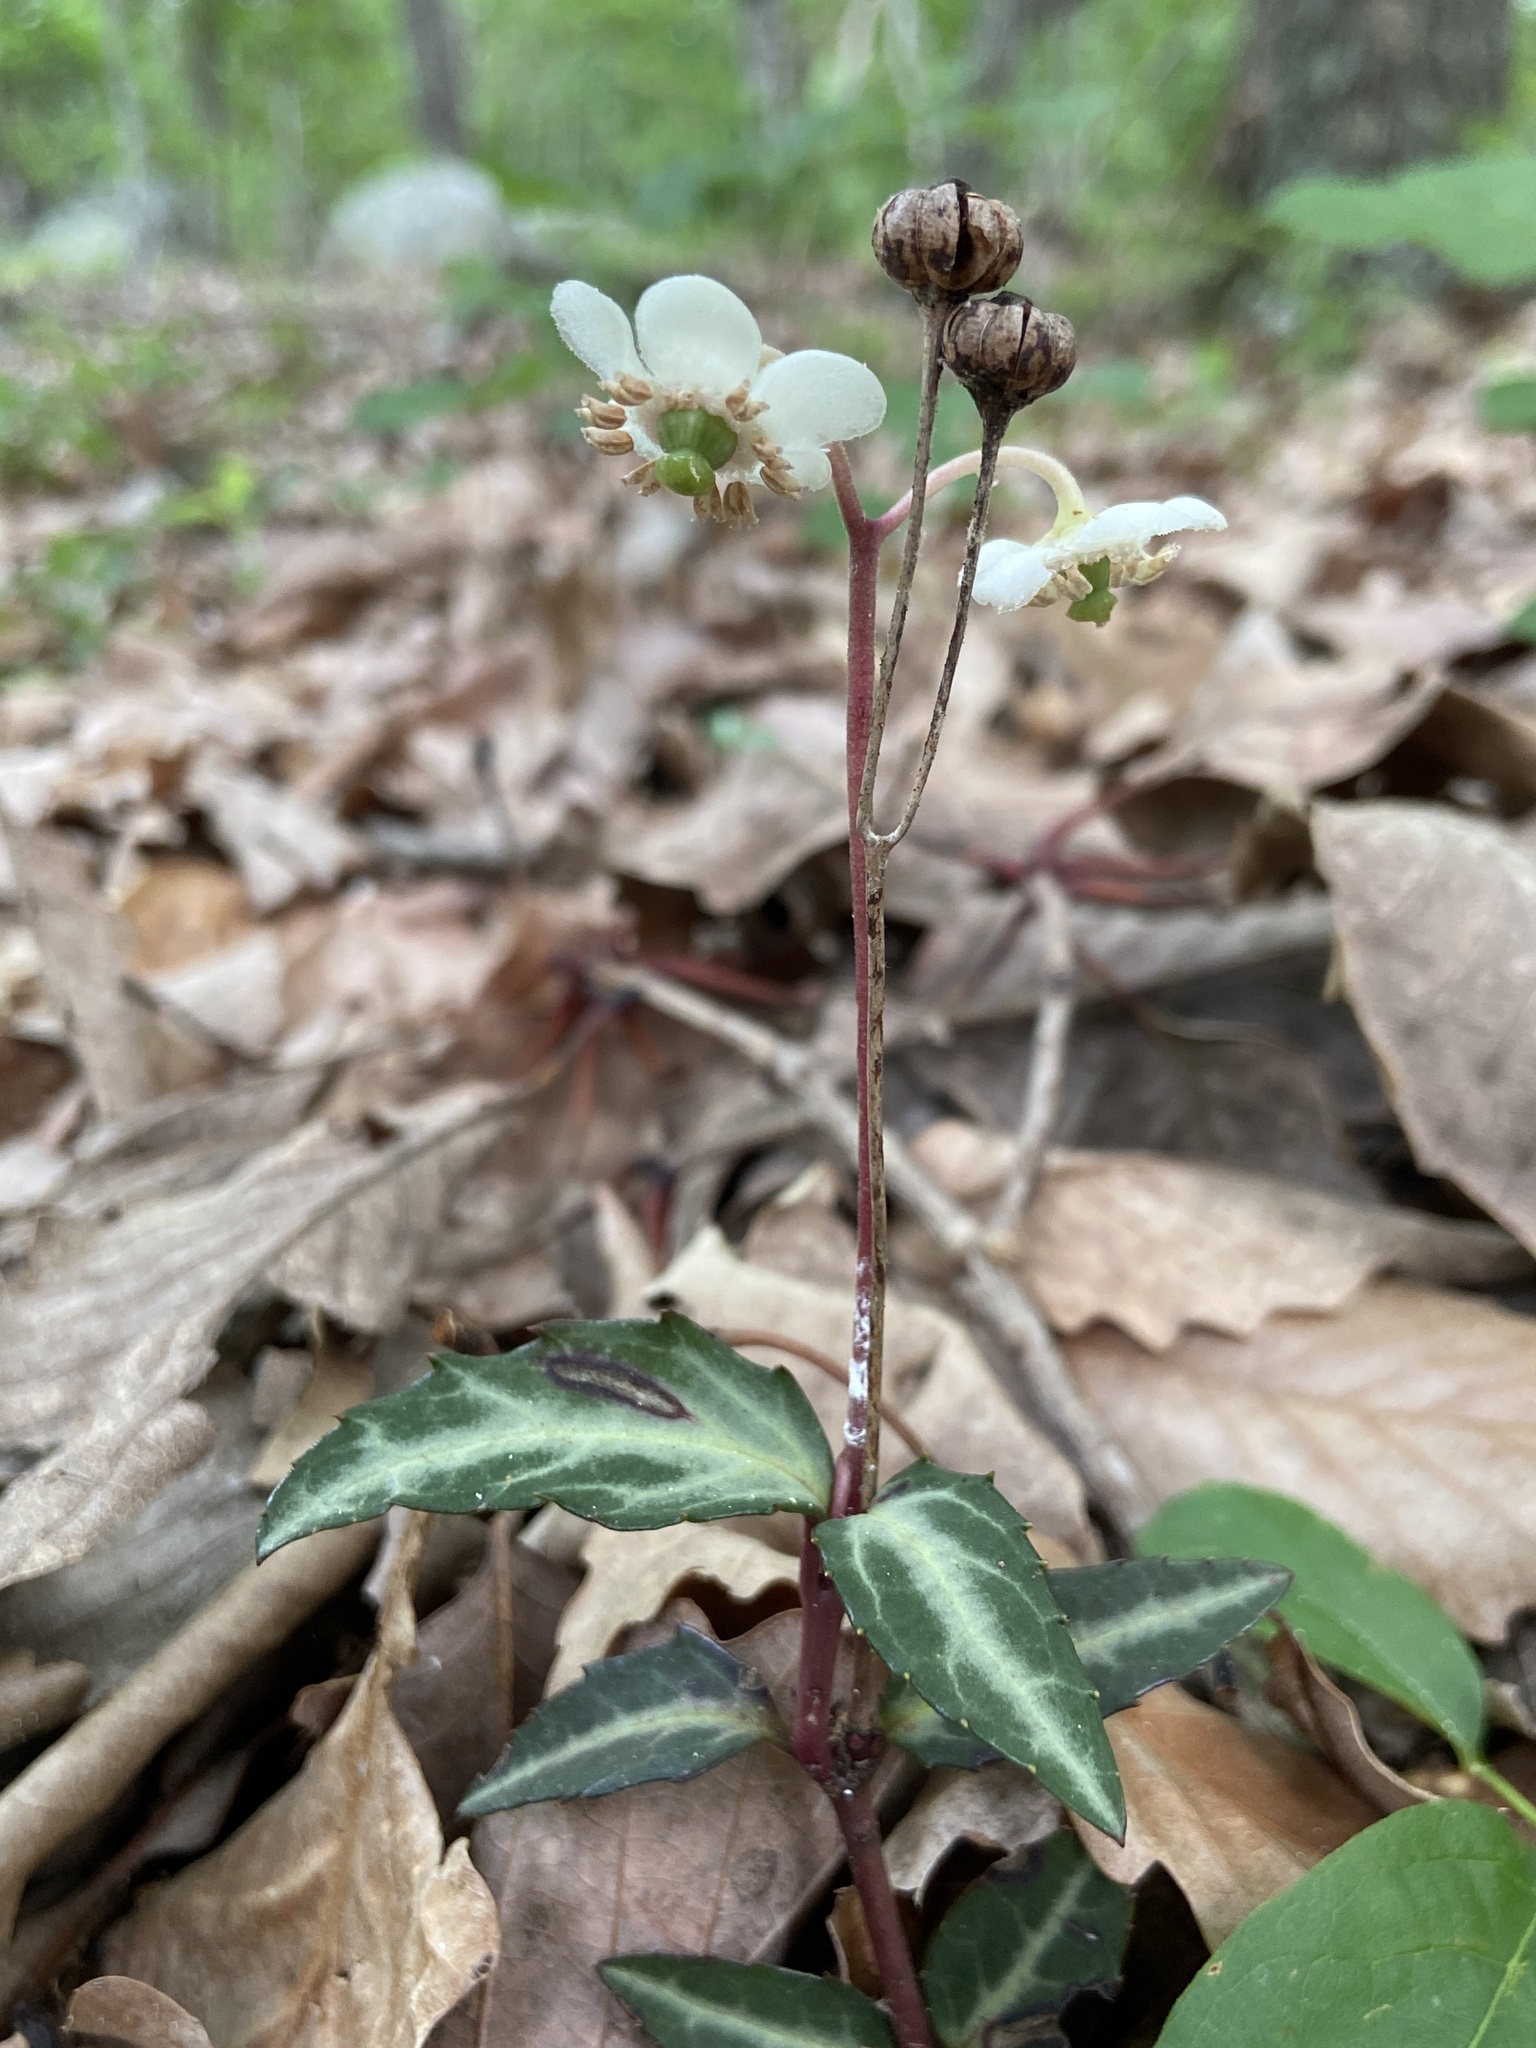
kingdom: Plantae
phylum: Tracheophyta
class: Magnoliopsida
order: Ericales
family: Ericaceae
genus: Chimaphila
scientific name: Chimaphila maculata
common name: Spotted pipsissewa
